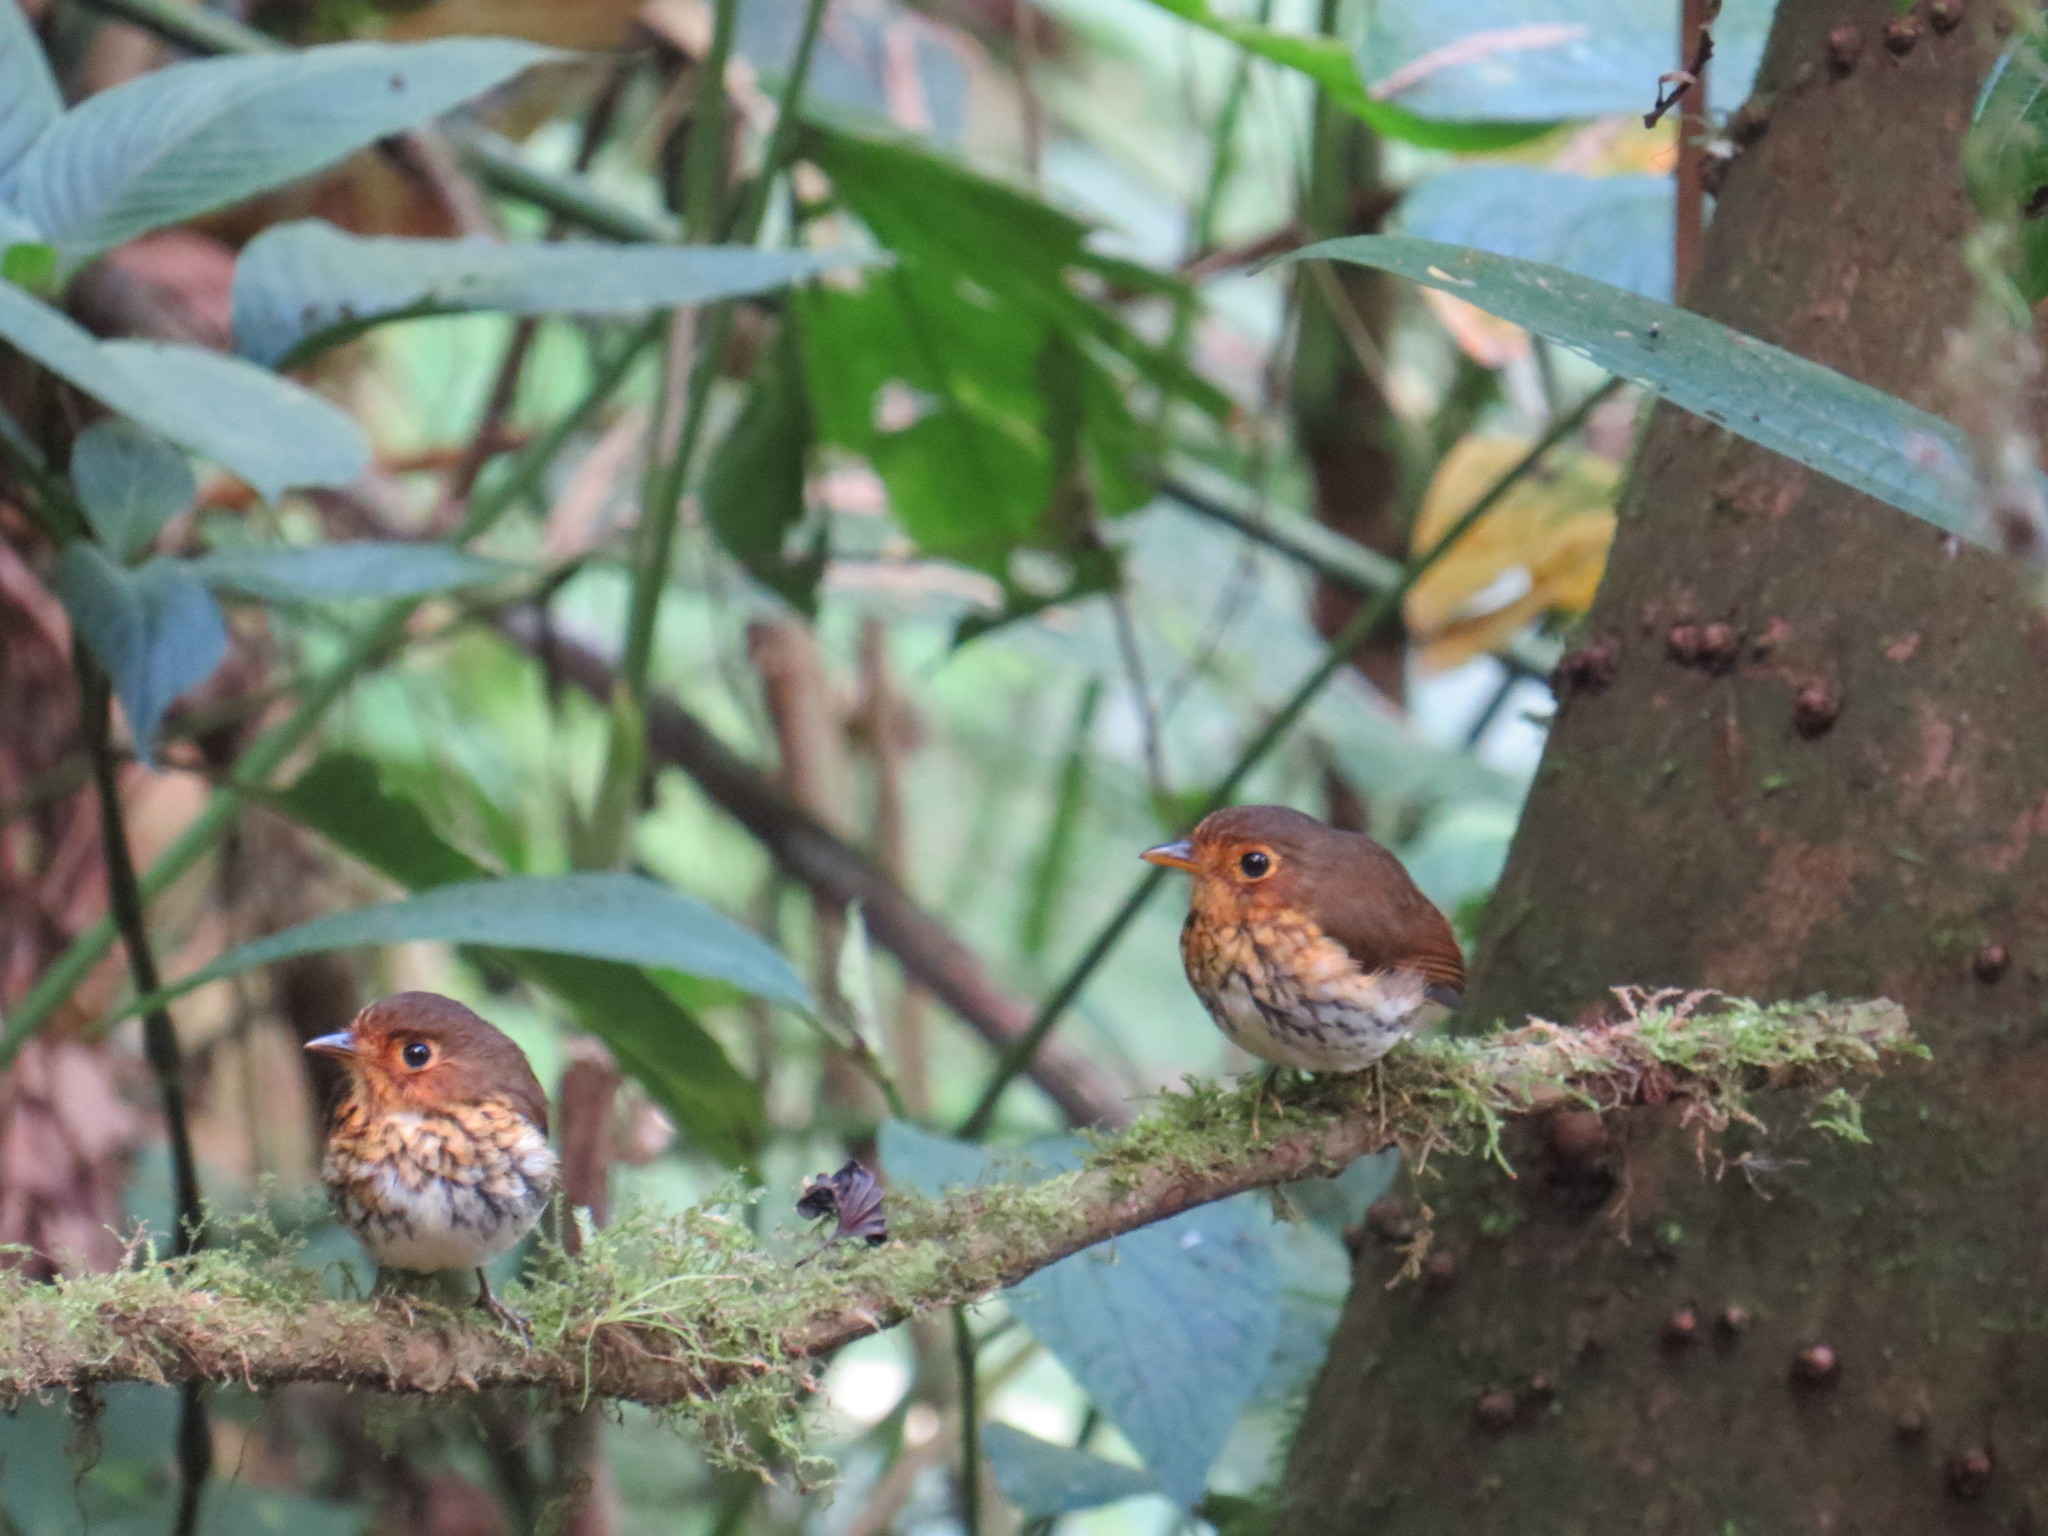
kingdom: Animalia
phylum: Chordata
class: Aves
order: Passeriformes
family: Grallariidae
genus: Grallaricula
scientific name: Grallaricula flavirostris
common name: Ochre-breasted antpitta
